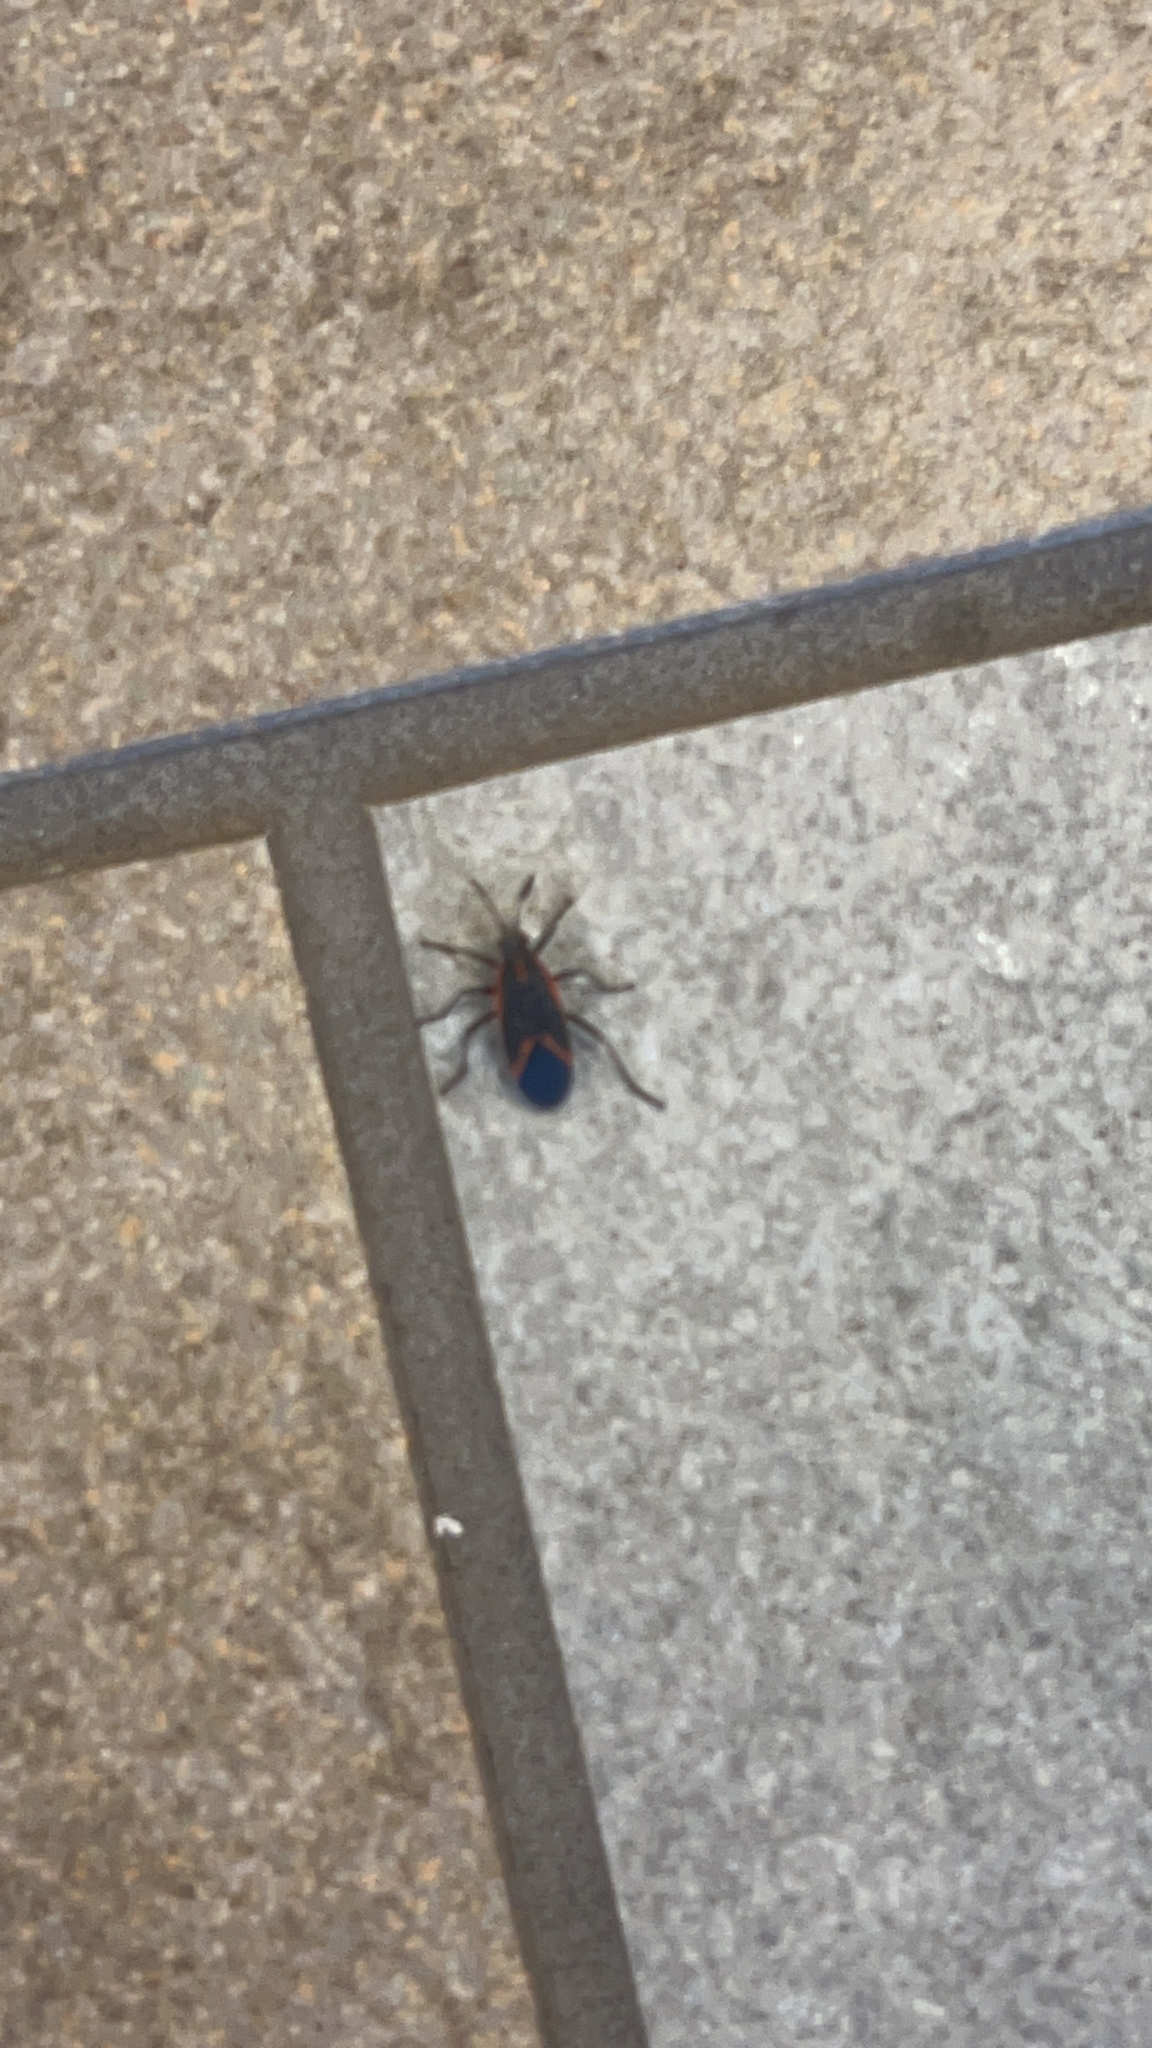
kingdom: Animalia
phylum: Arthropoda
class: Insecta
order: Hemiptera
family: Rhopalidae
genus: Boisea
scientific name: Boisea trivittata
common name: Boxelder bug
